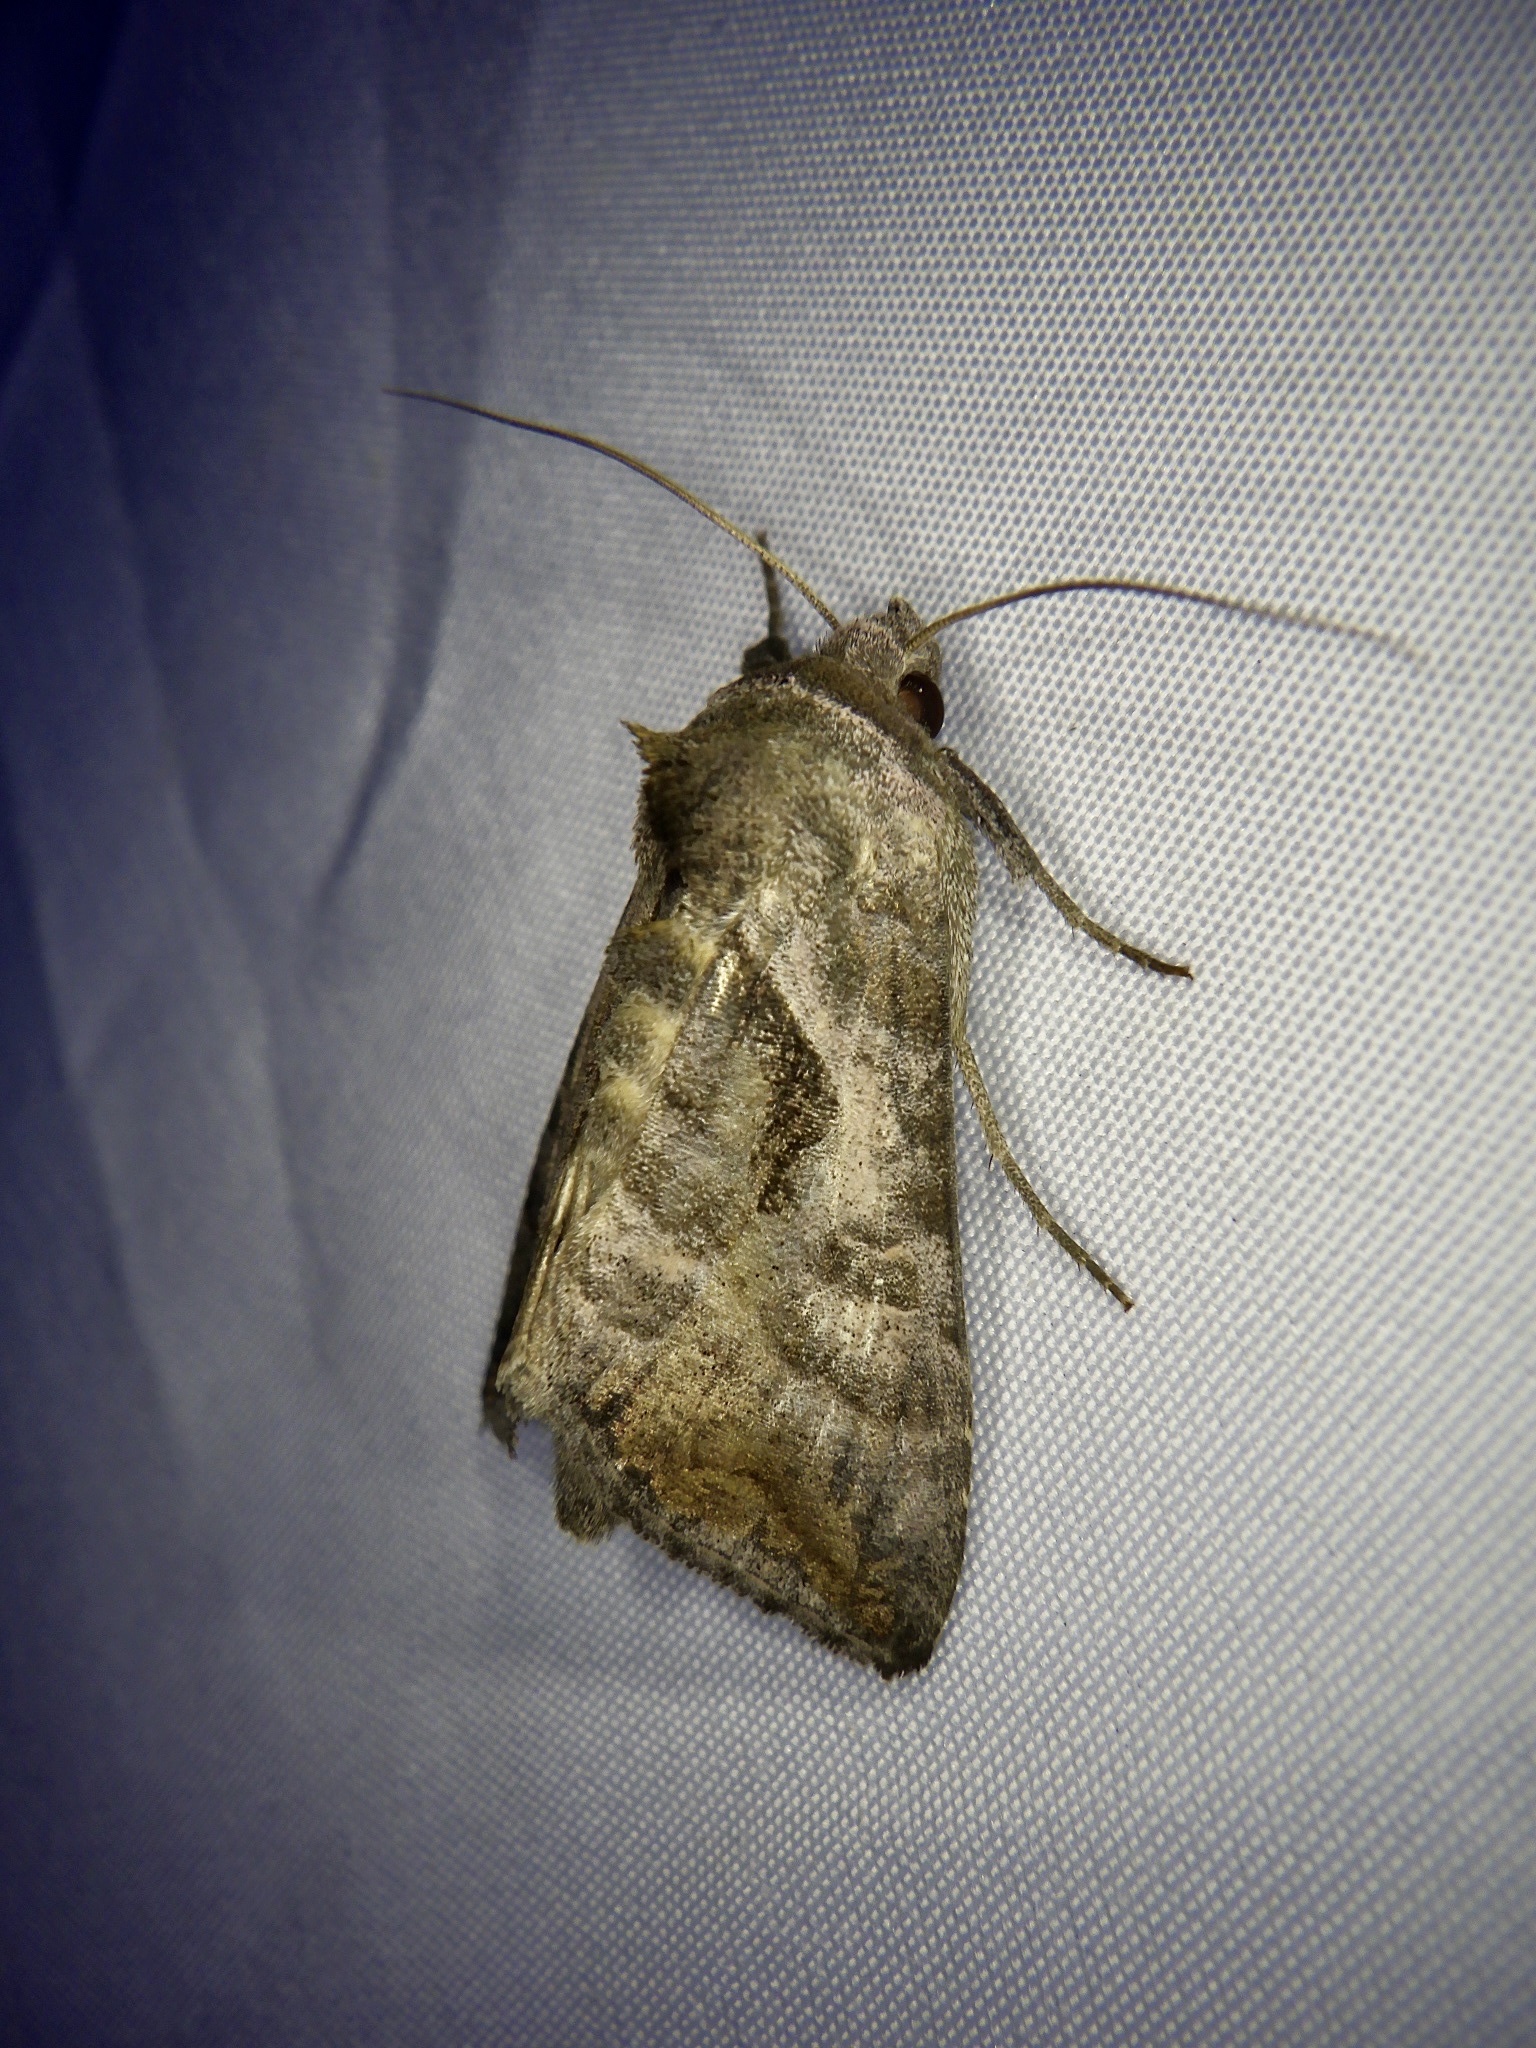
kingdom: Animalia
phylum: Arthropoda
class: Insecta
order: Lepidoptera
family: Noctuidae
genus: Anadevidia
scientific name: Anadevidia peponis
